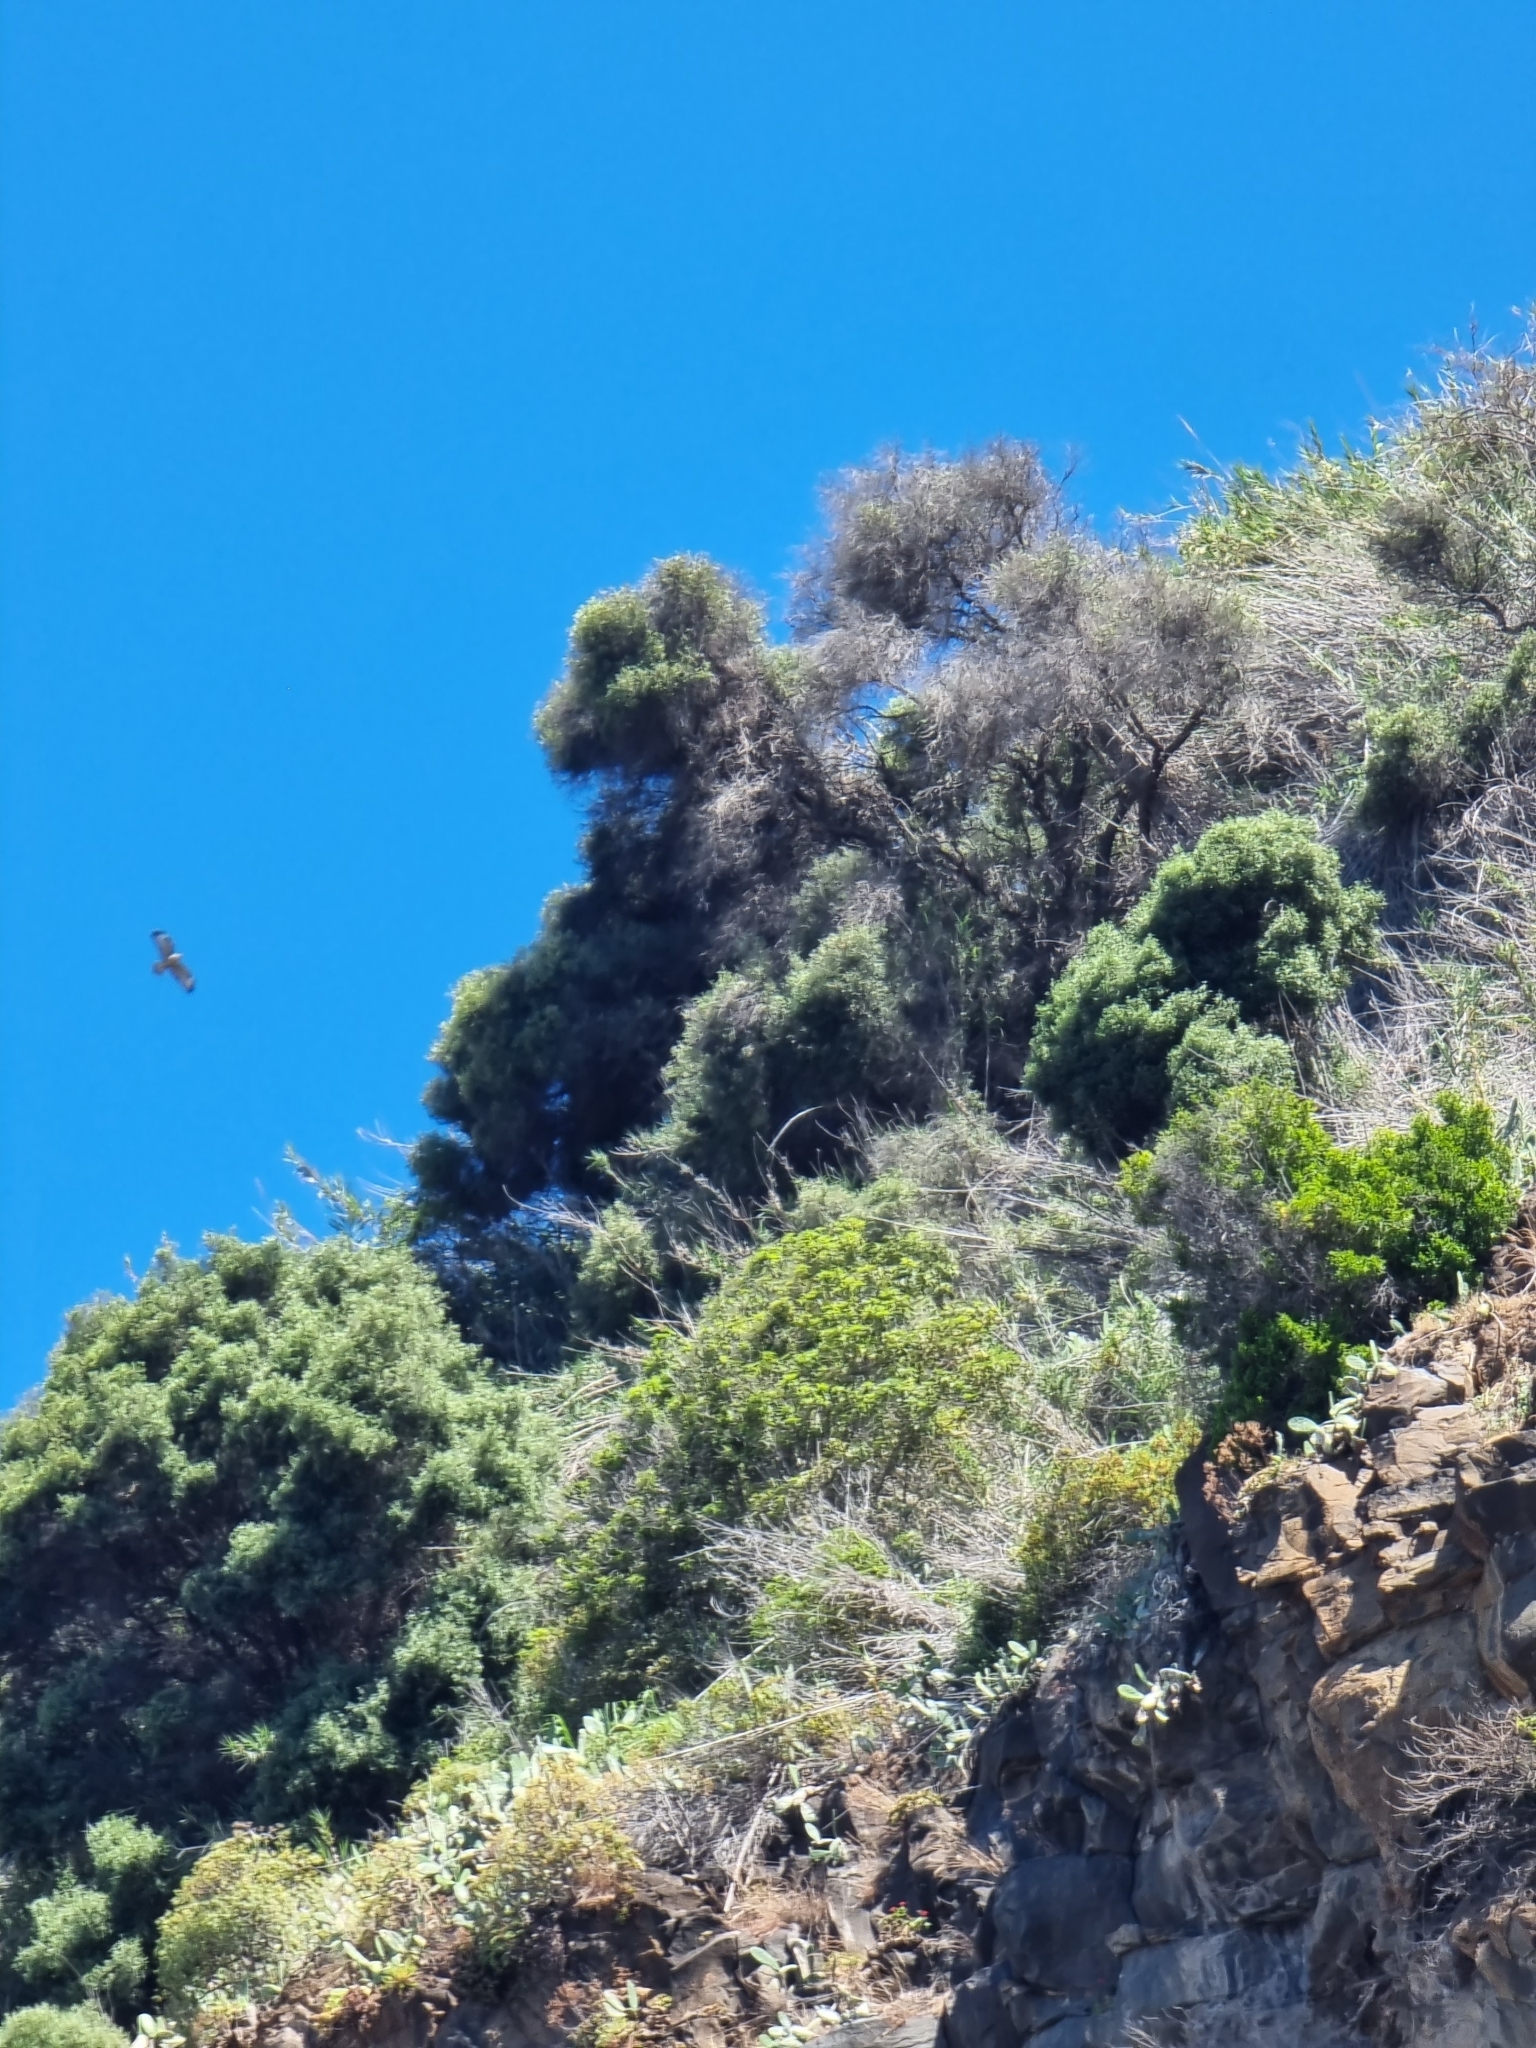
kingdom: Animalia
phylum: Chordata
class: Aves
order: Accipitriformes
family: Accipitridae
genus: Buteo
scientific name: Buteo buteo
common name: Common buzzard
